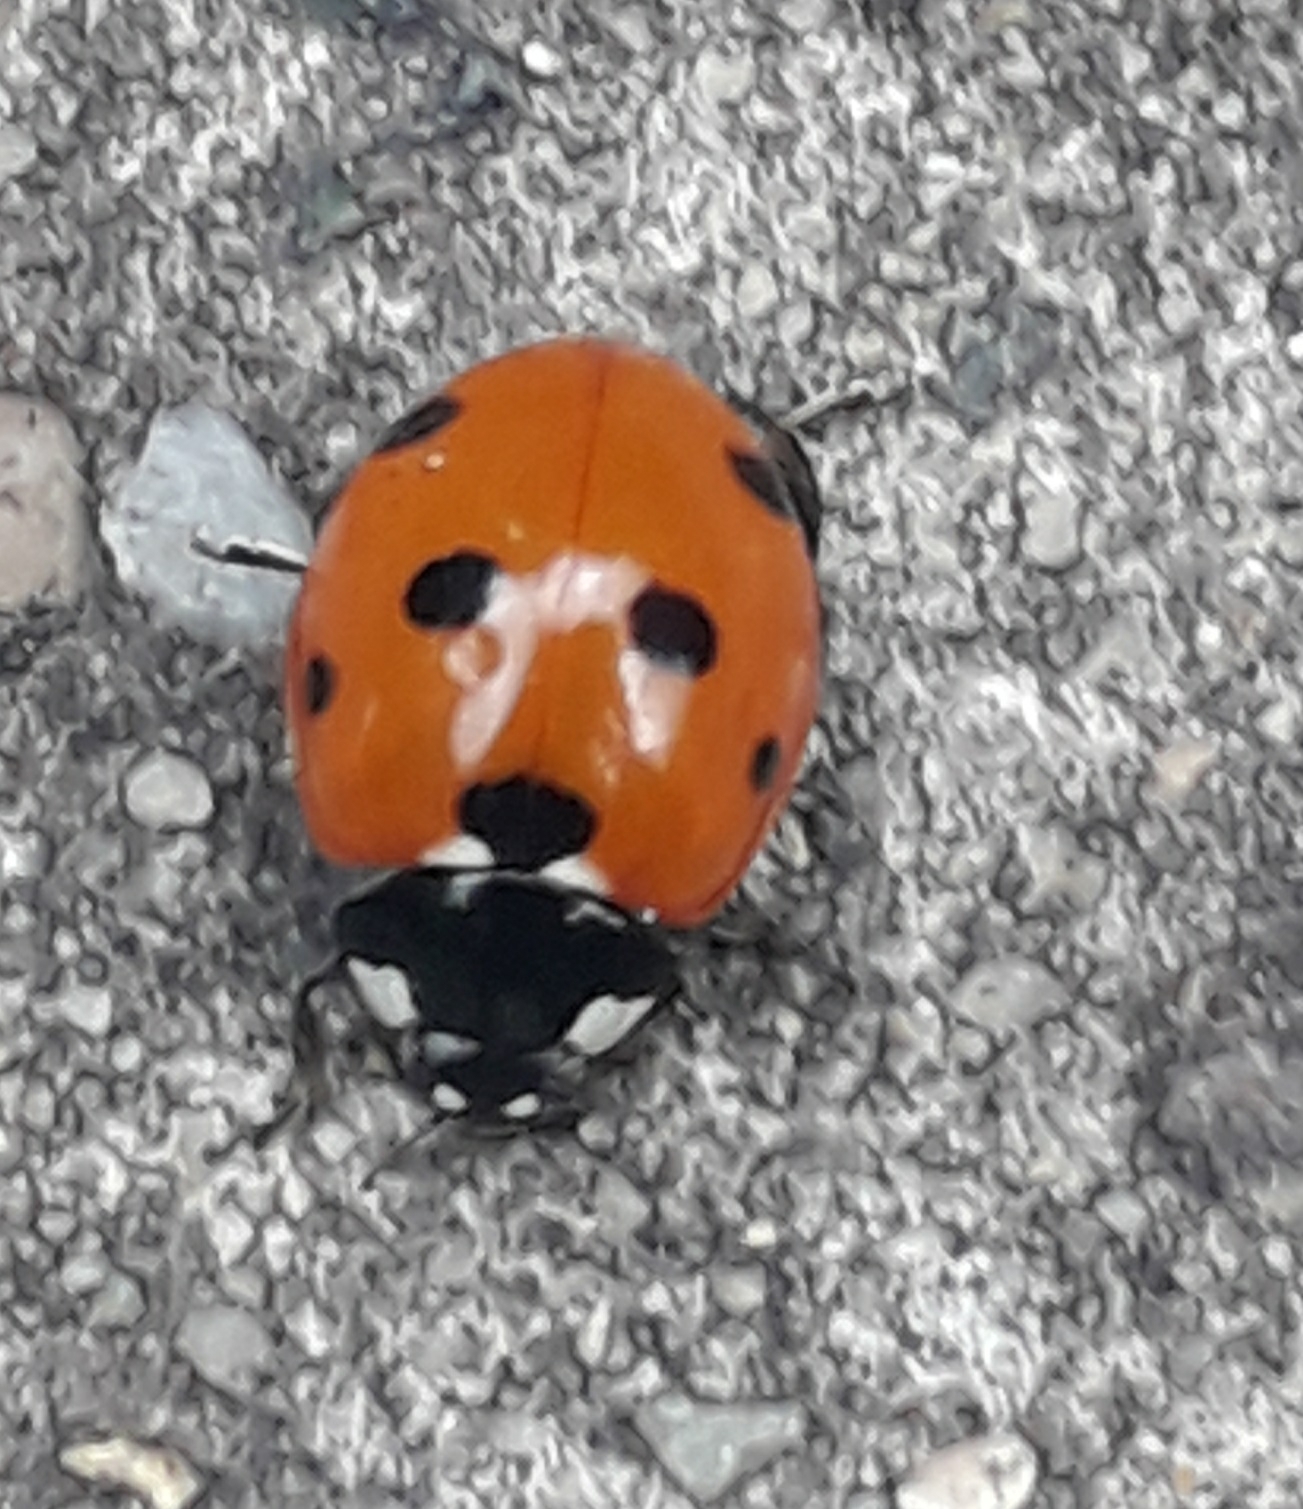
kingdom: Animalia
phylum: Arthropoda
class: Insecta
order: Coleoptera
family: Coccinellidae
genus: Coccinella
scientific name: Coccinella septempunctata
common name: Sevenspotted lady beetle
